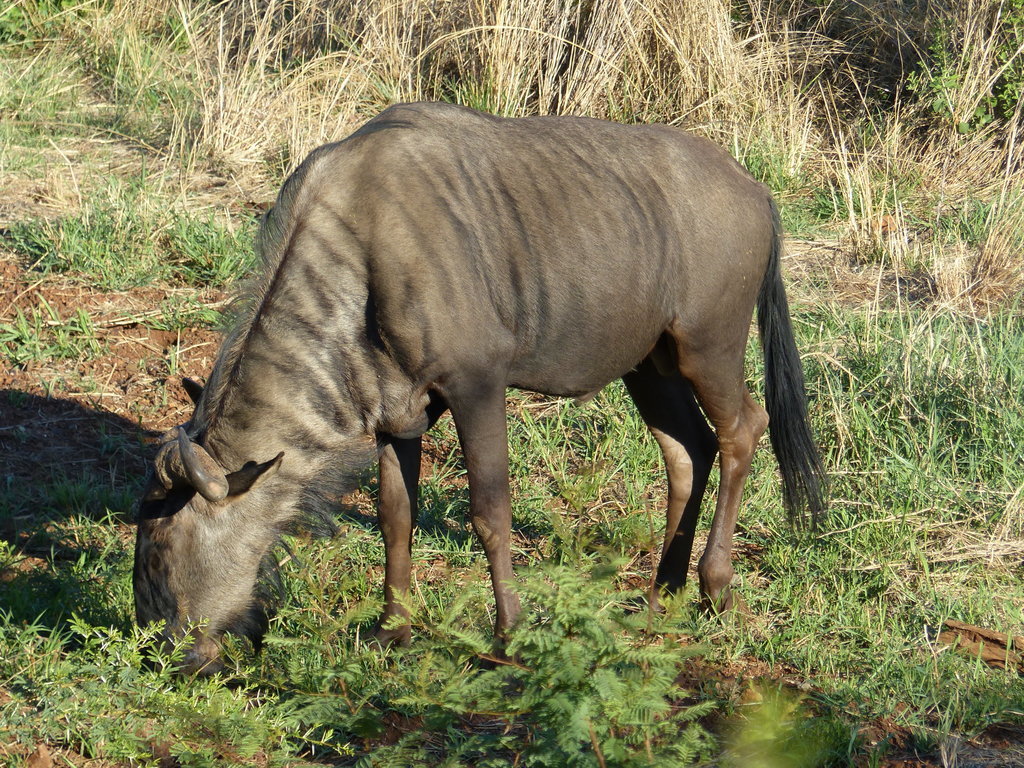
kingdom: Animalia
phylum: Chordata
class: Mammalia
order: Artiodactyla
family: Bovidae
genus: Connochaetes
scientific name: Connochaetes taurinus
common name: Blue wildebeest
